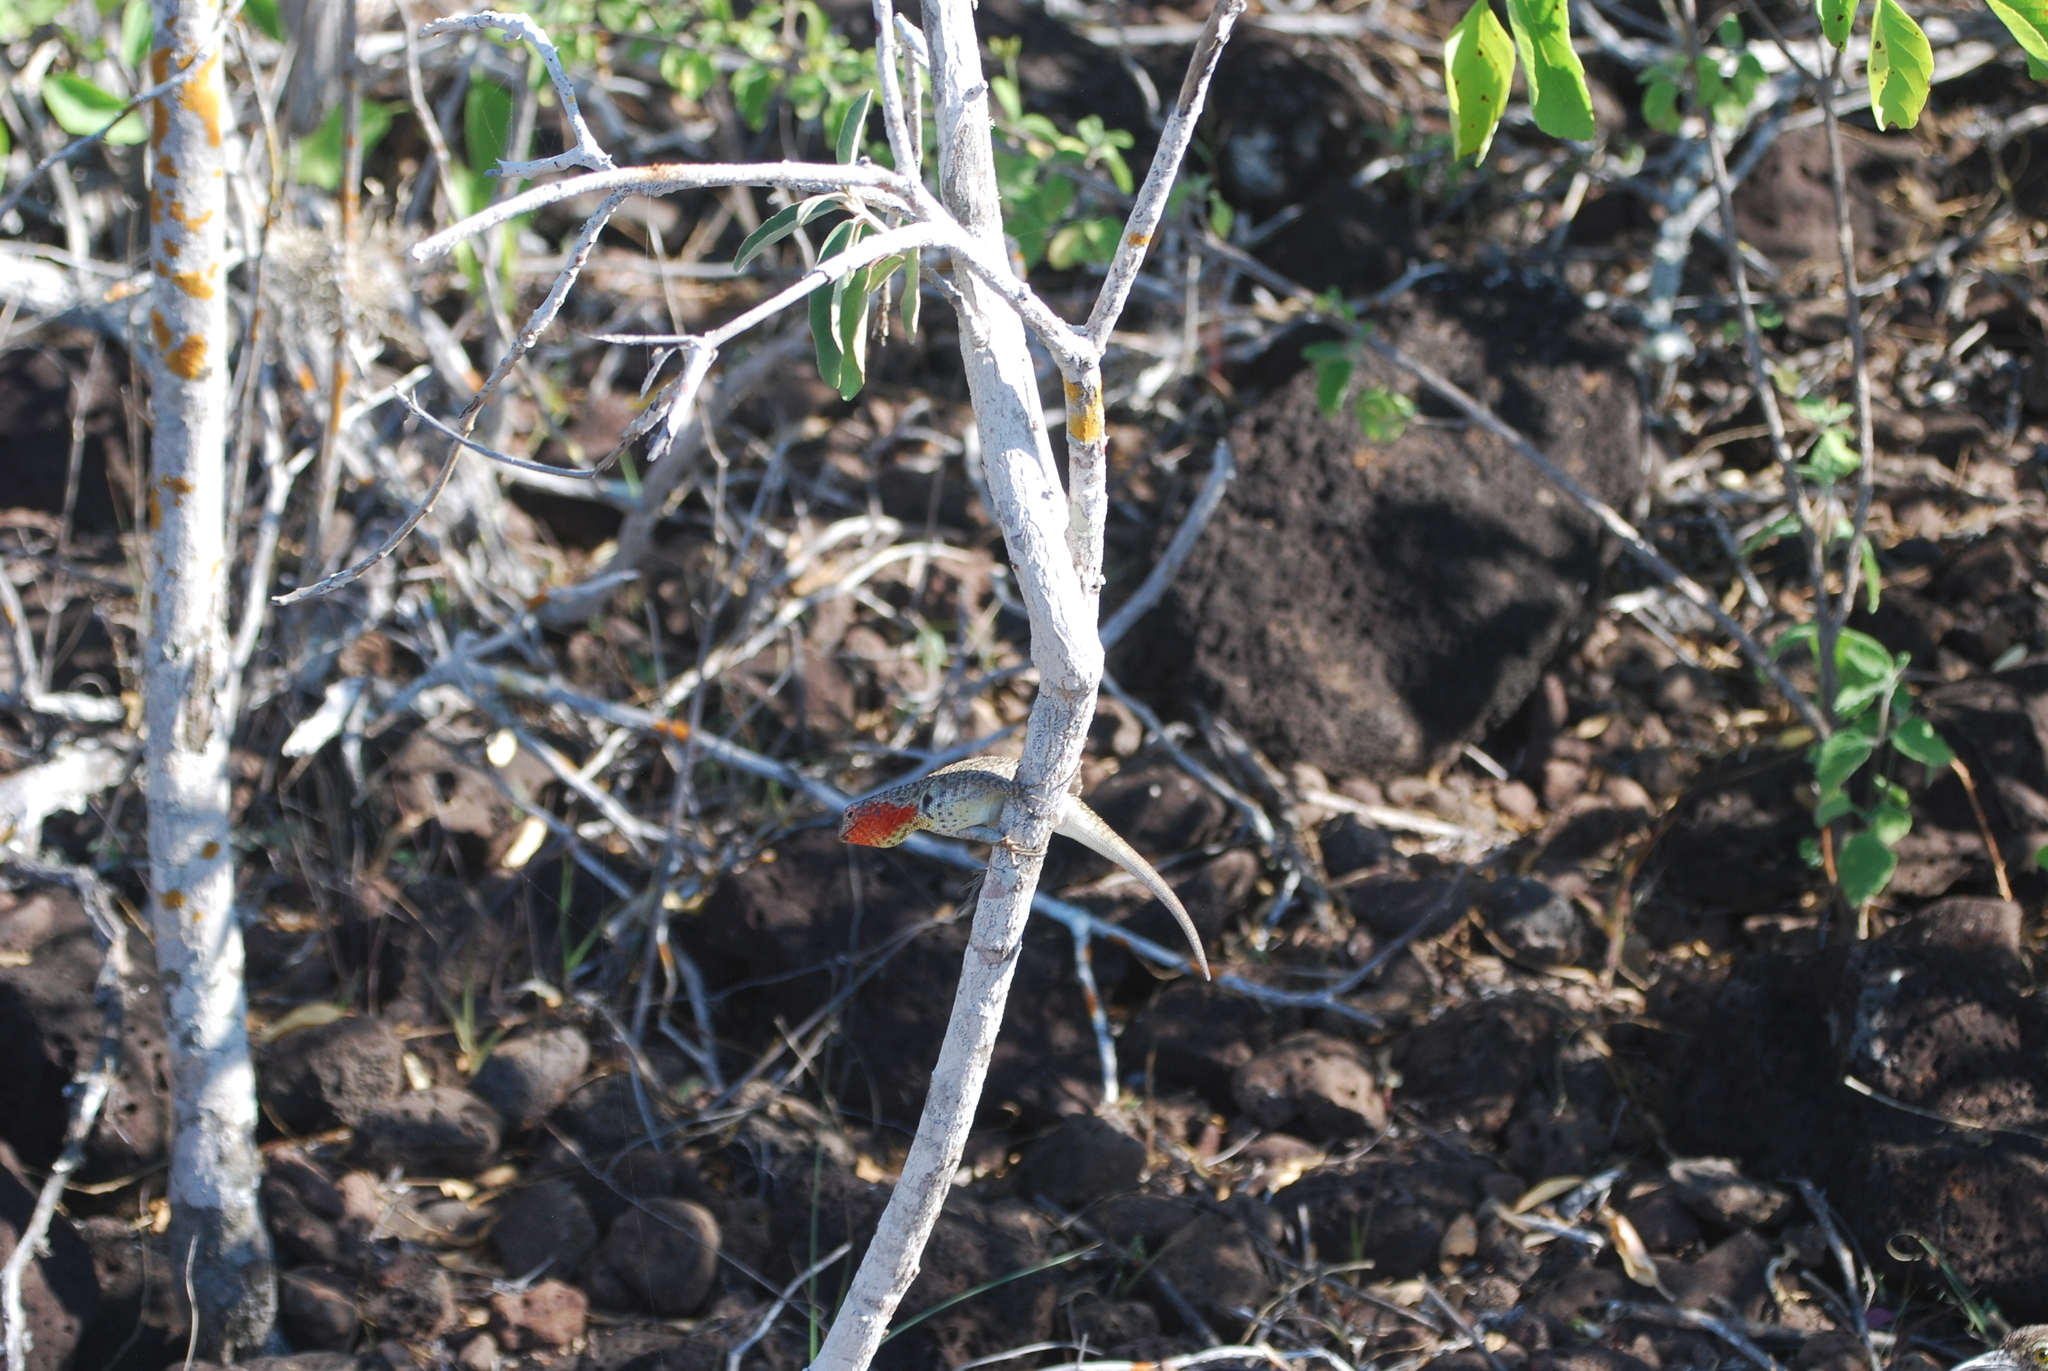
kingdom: Animalia
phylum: Chordata
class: Squamata
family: Tropiduridae
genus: Microlophus
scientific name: Microlophus barringtonensis
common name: Galapagos lava lizard
